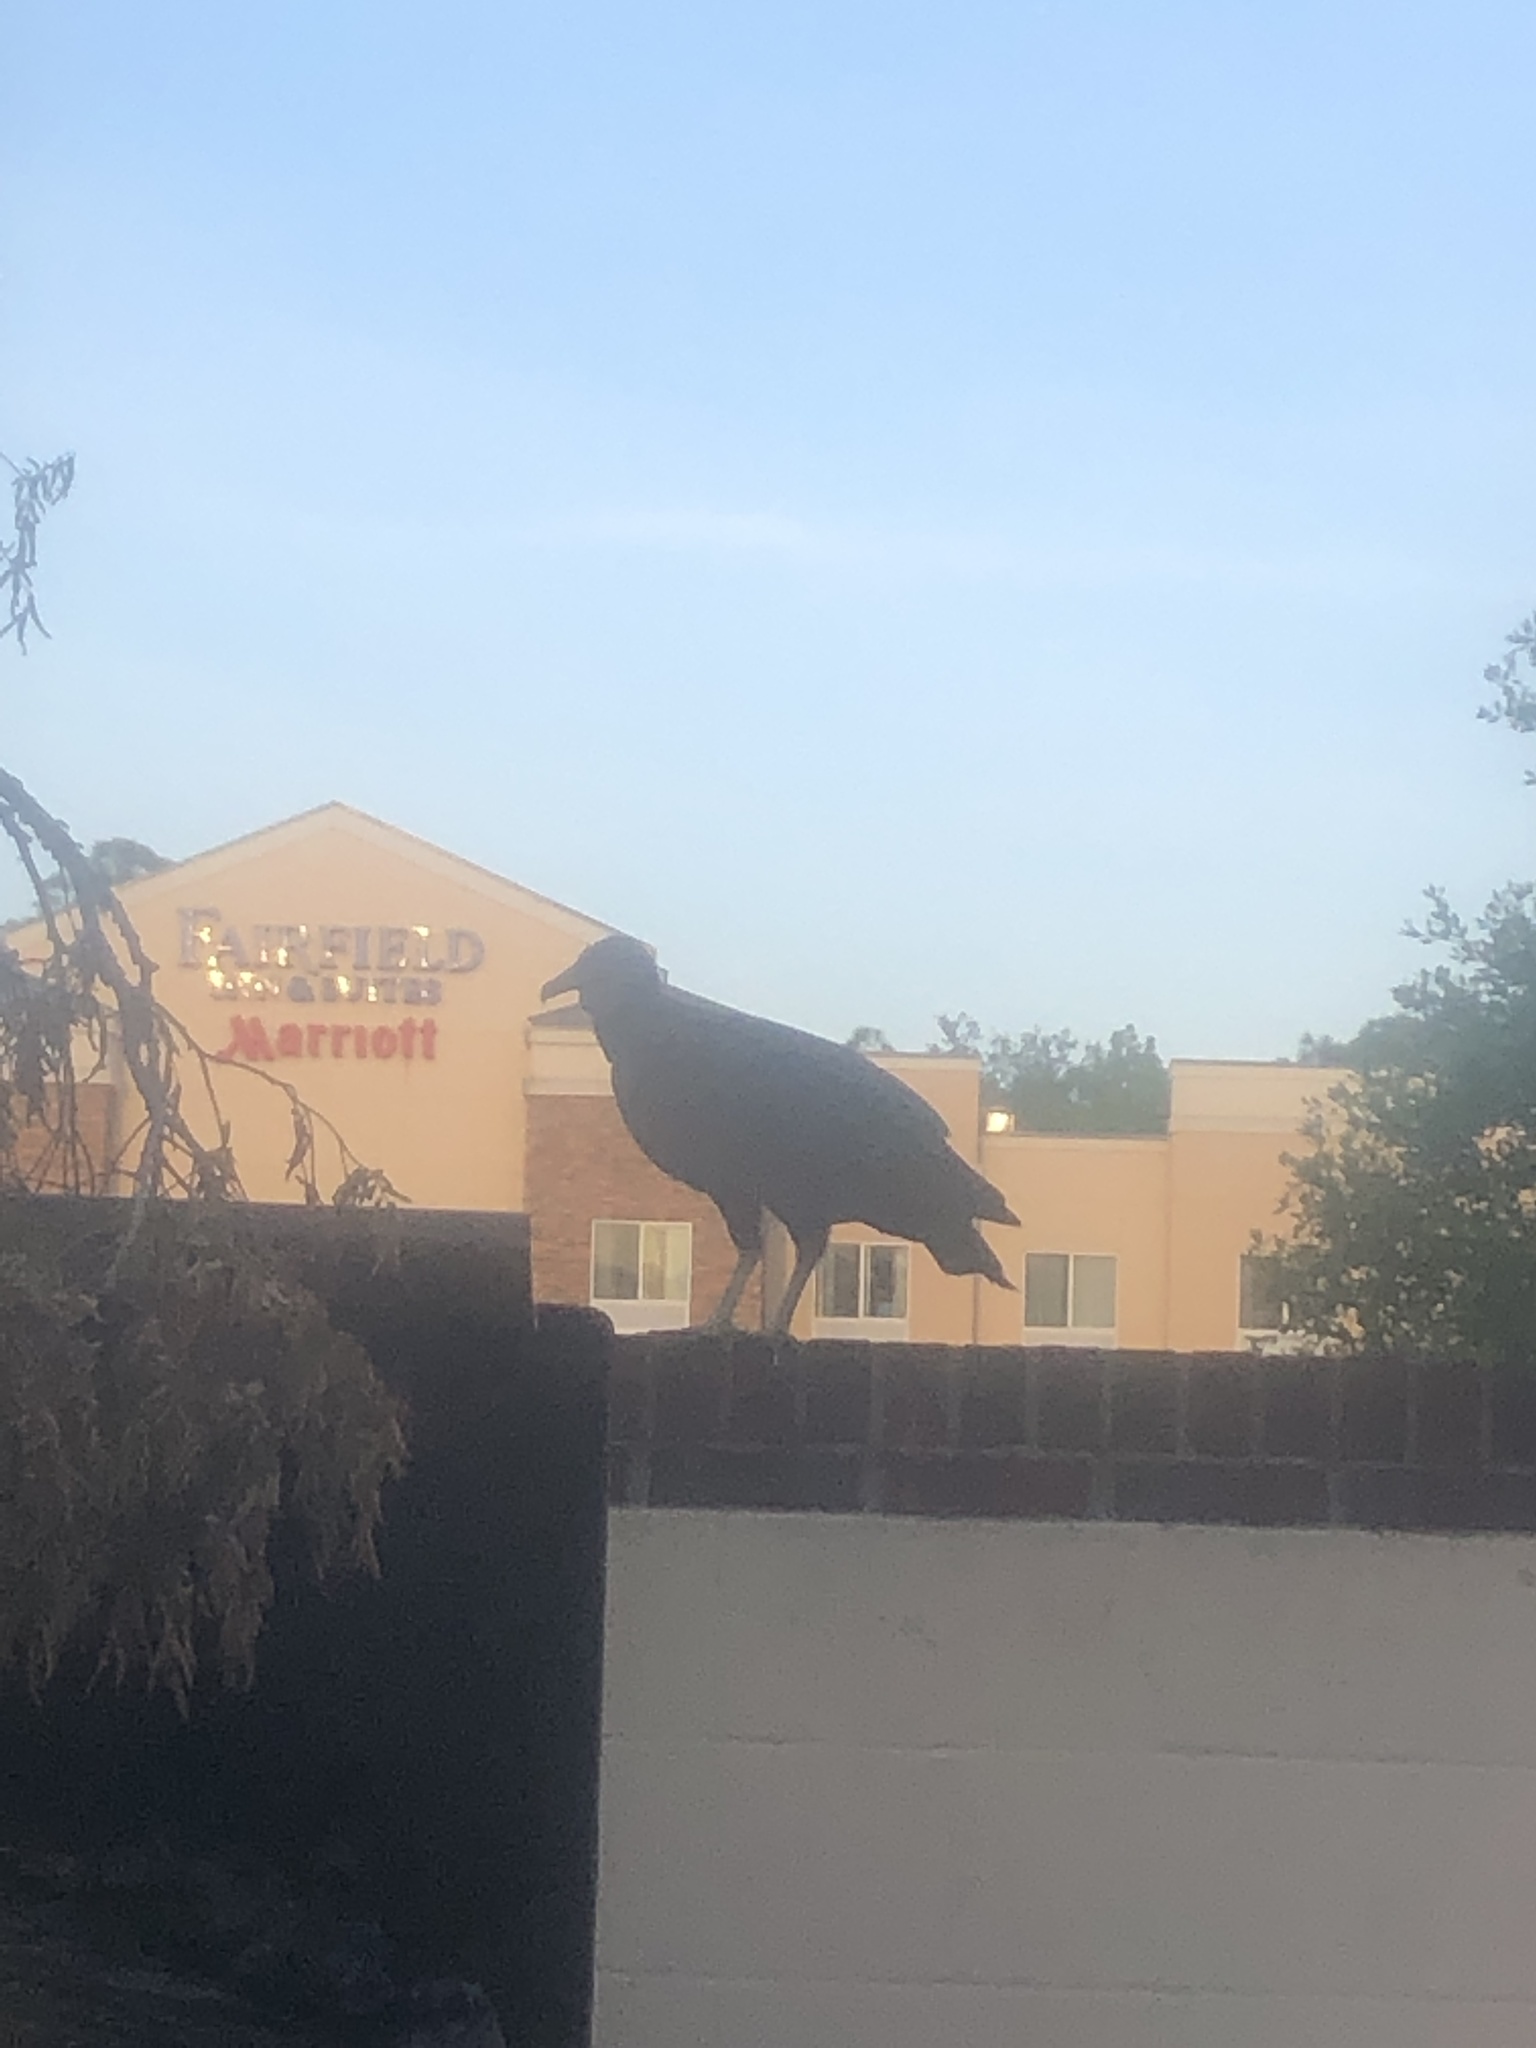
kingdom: Animalia
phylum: Chordata
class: Aves
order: Accipitriformes
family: Cathartidae
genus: Coragyps
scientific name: Coragyps atratus
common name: Black vulture
